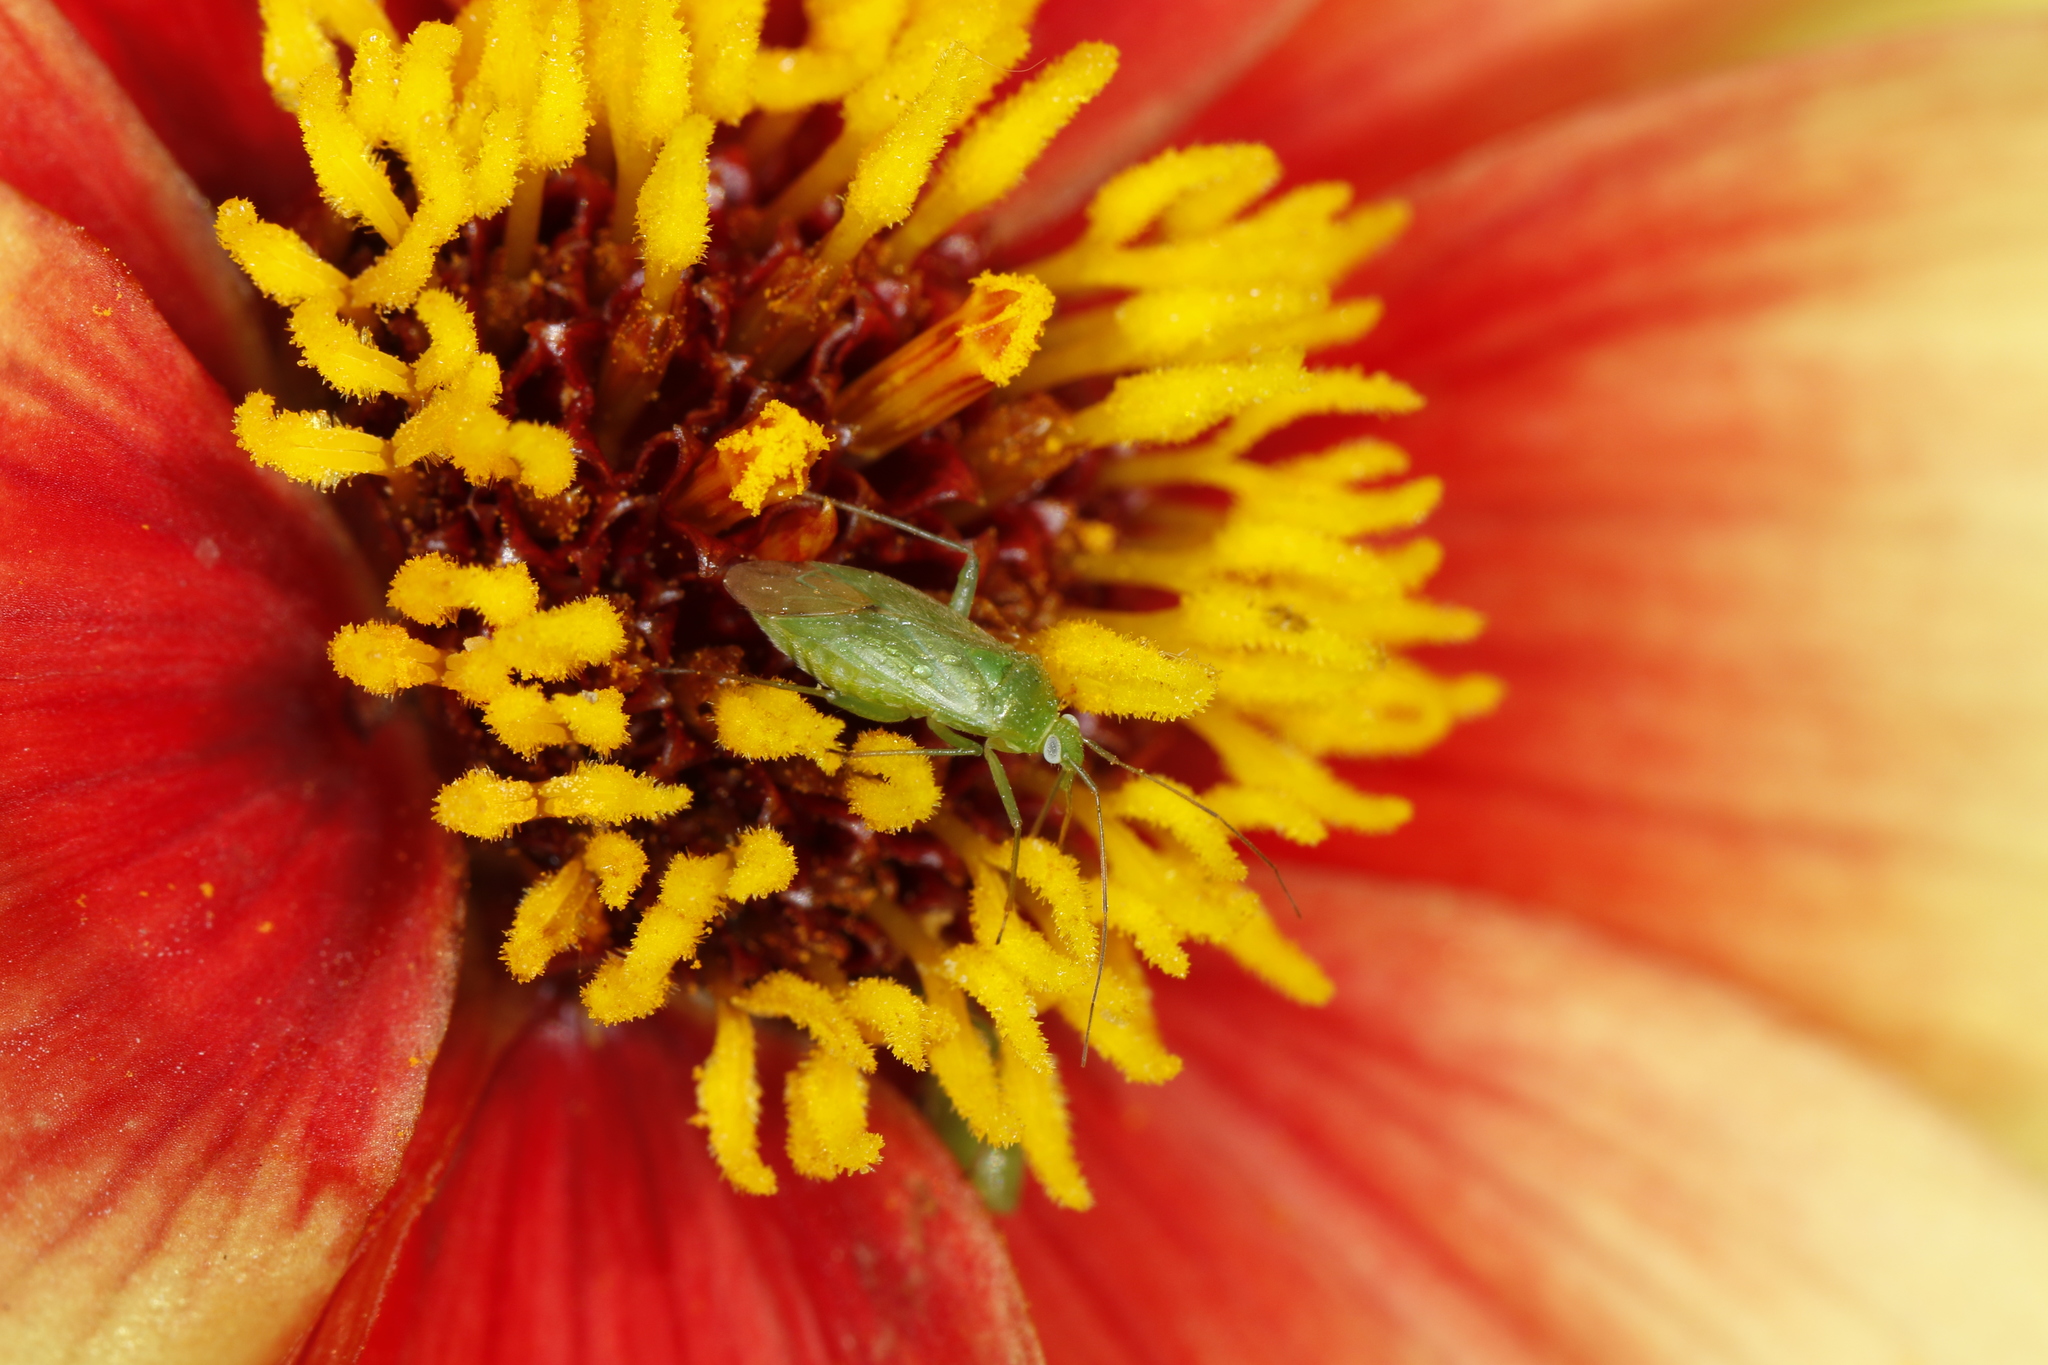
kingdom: Animalia
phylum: Arthropoda
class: Insecta
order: Hemiptera
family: Miridae
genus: Lygocoris
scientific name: Lygocoris pabulinus
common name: Common green capsid
